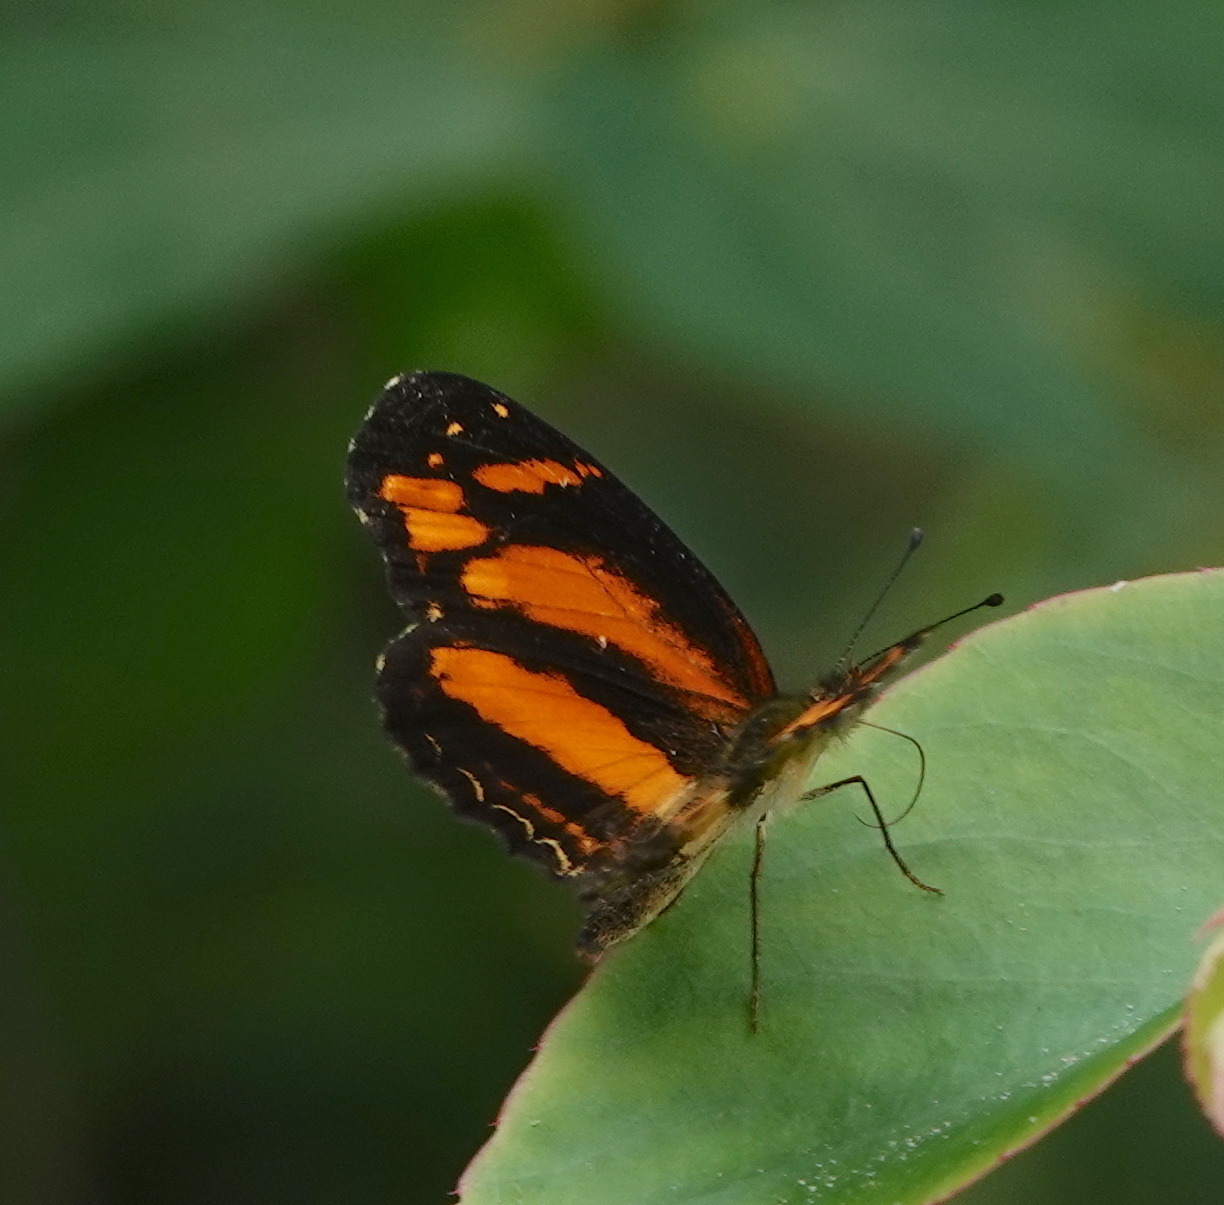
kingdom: Animalia
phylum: Arthropoda
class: Insecta
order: Lepidoptera
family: Nymphalidae
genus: Castilia
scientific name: Castilia eranites
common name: Smudged crescent
